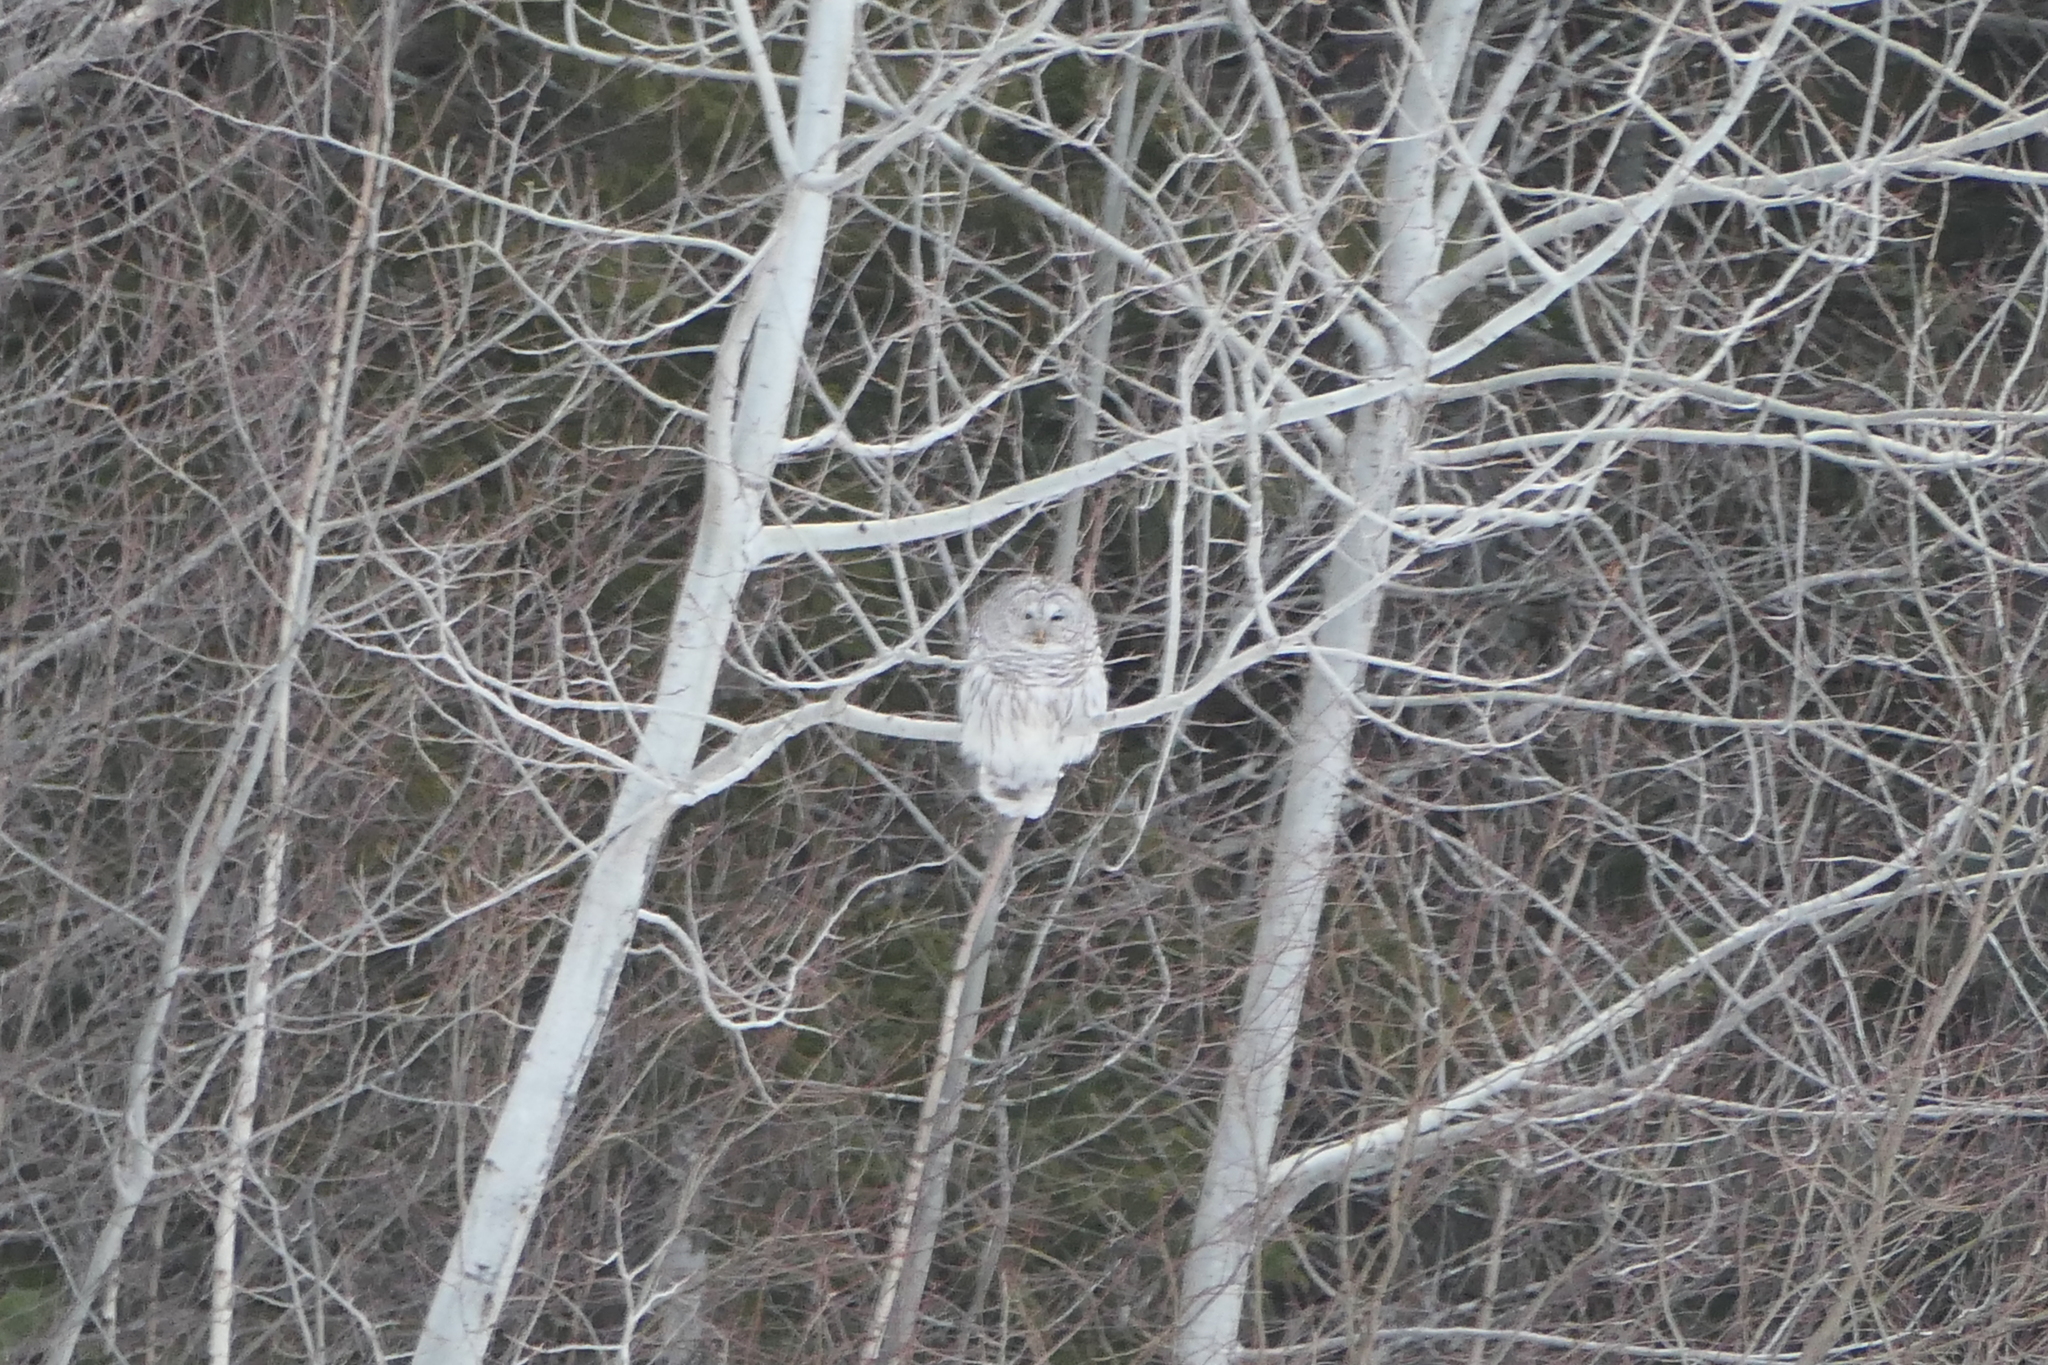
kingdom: Animalia
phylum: Chordata
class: Aves
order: Strigiformes
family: Strigidae
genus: Strix
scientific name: Strix varia
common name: Barred owl
